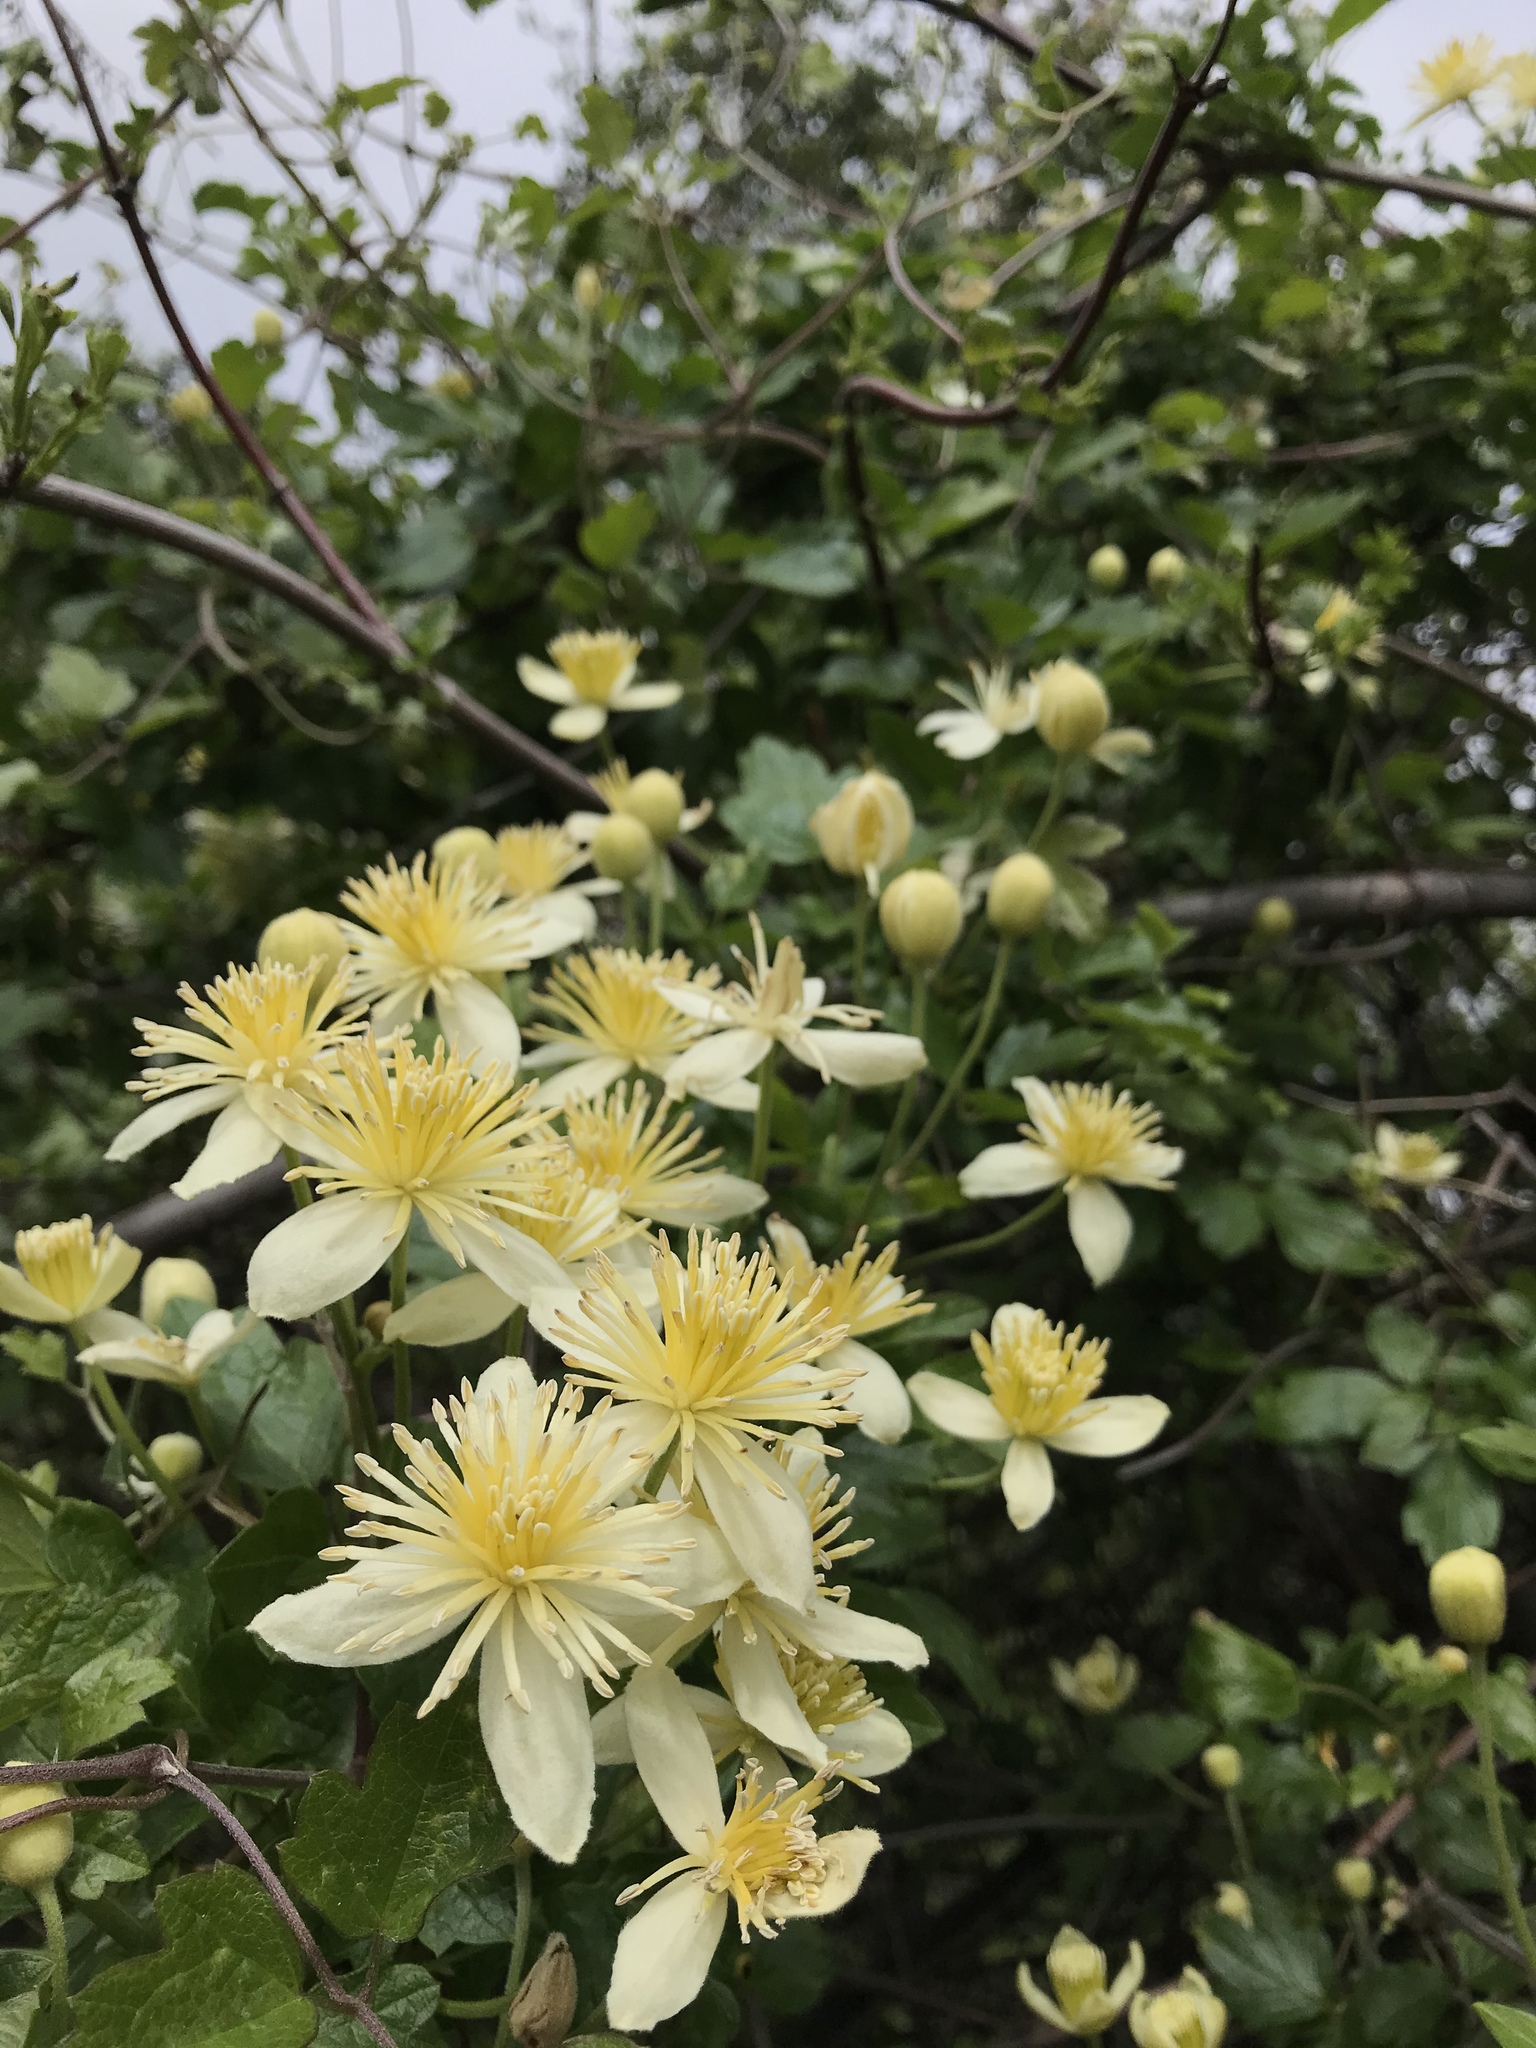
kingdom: Plantae
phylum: Tracheophyta
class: Magnoliopsida
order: Ranunculales
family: Ranunculaceae
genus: Clematis
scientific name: Clematis lasiantha
